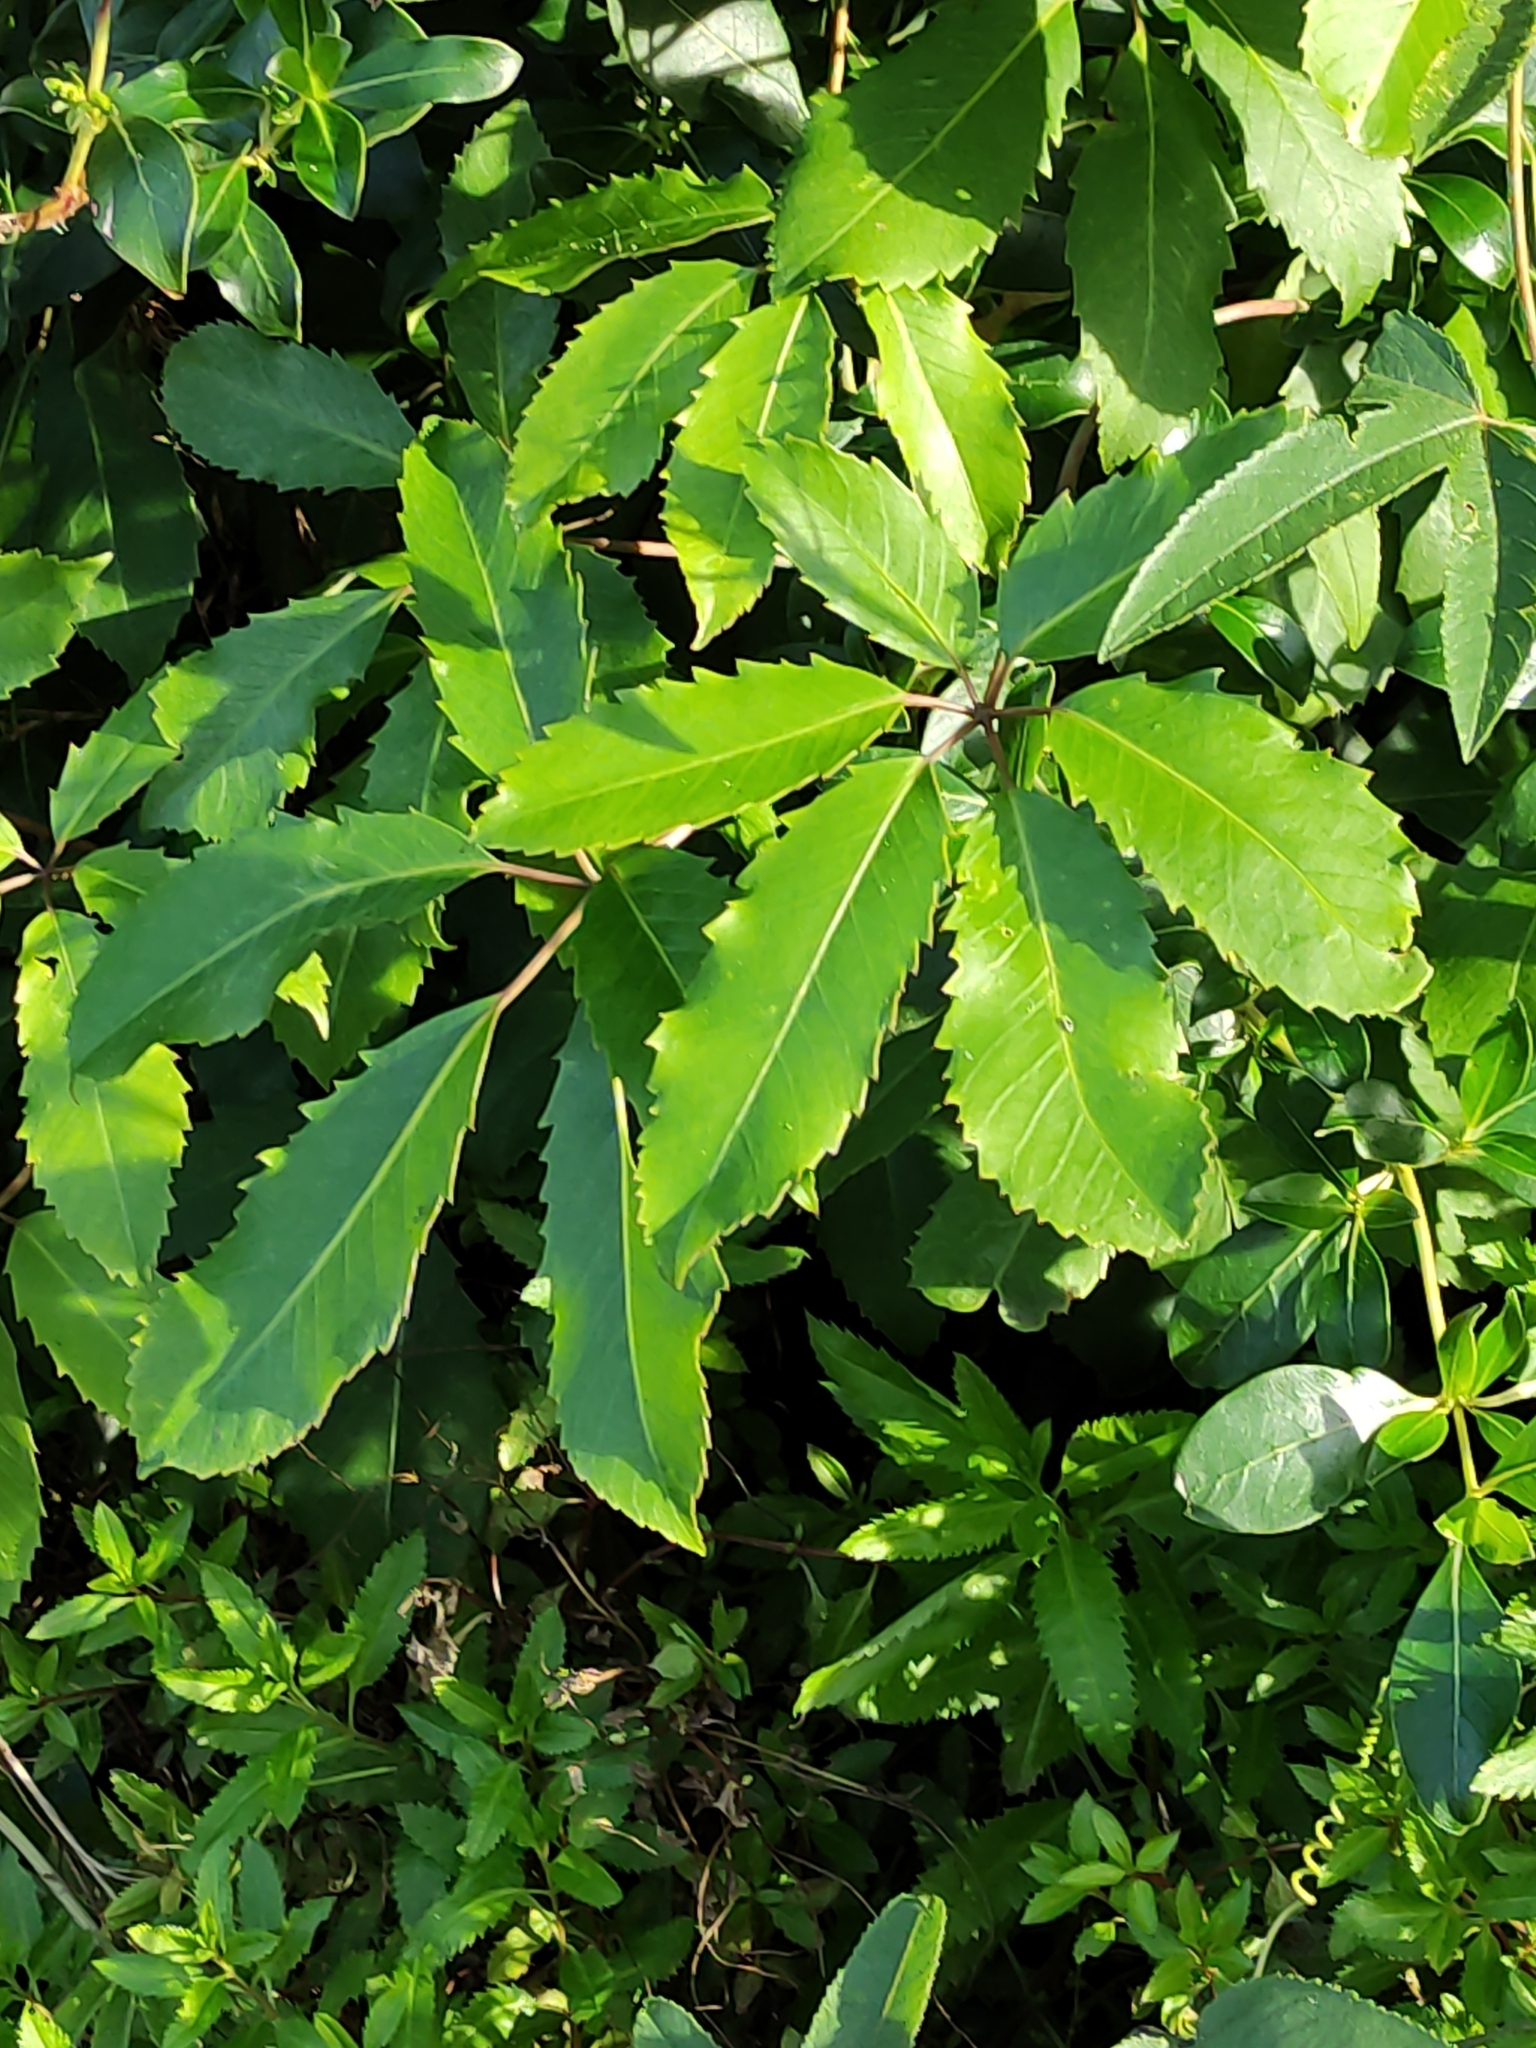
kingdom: Plantae
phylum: Tracheophyta
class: Magnoliopsida
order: Apiales
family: Araliaceae
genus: Neopanax
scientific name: Neopanax arboreus
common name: Five-fingers
